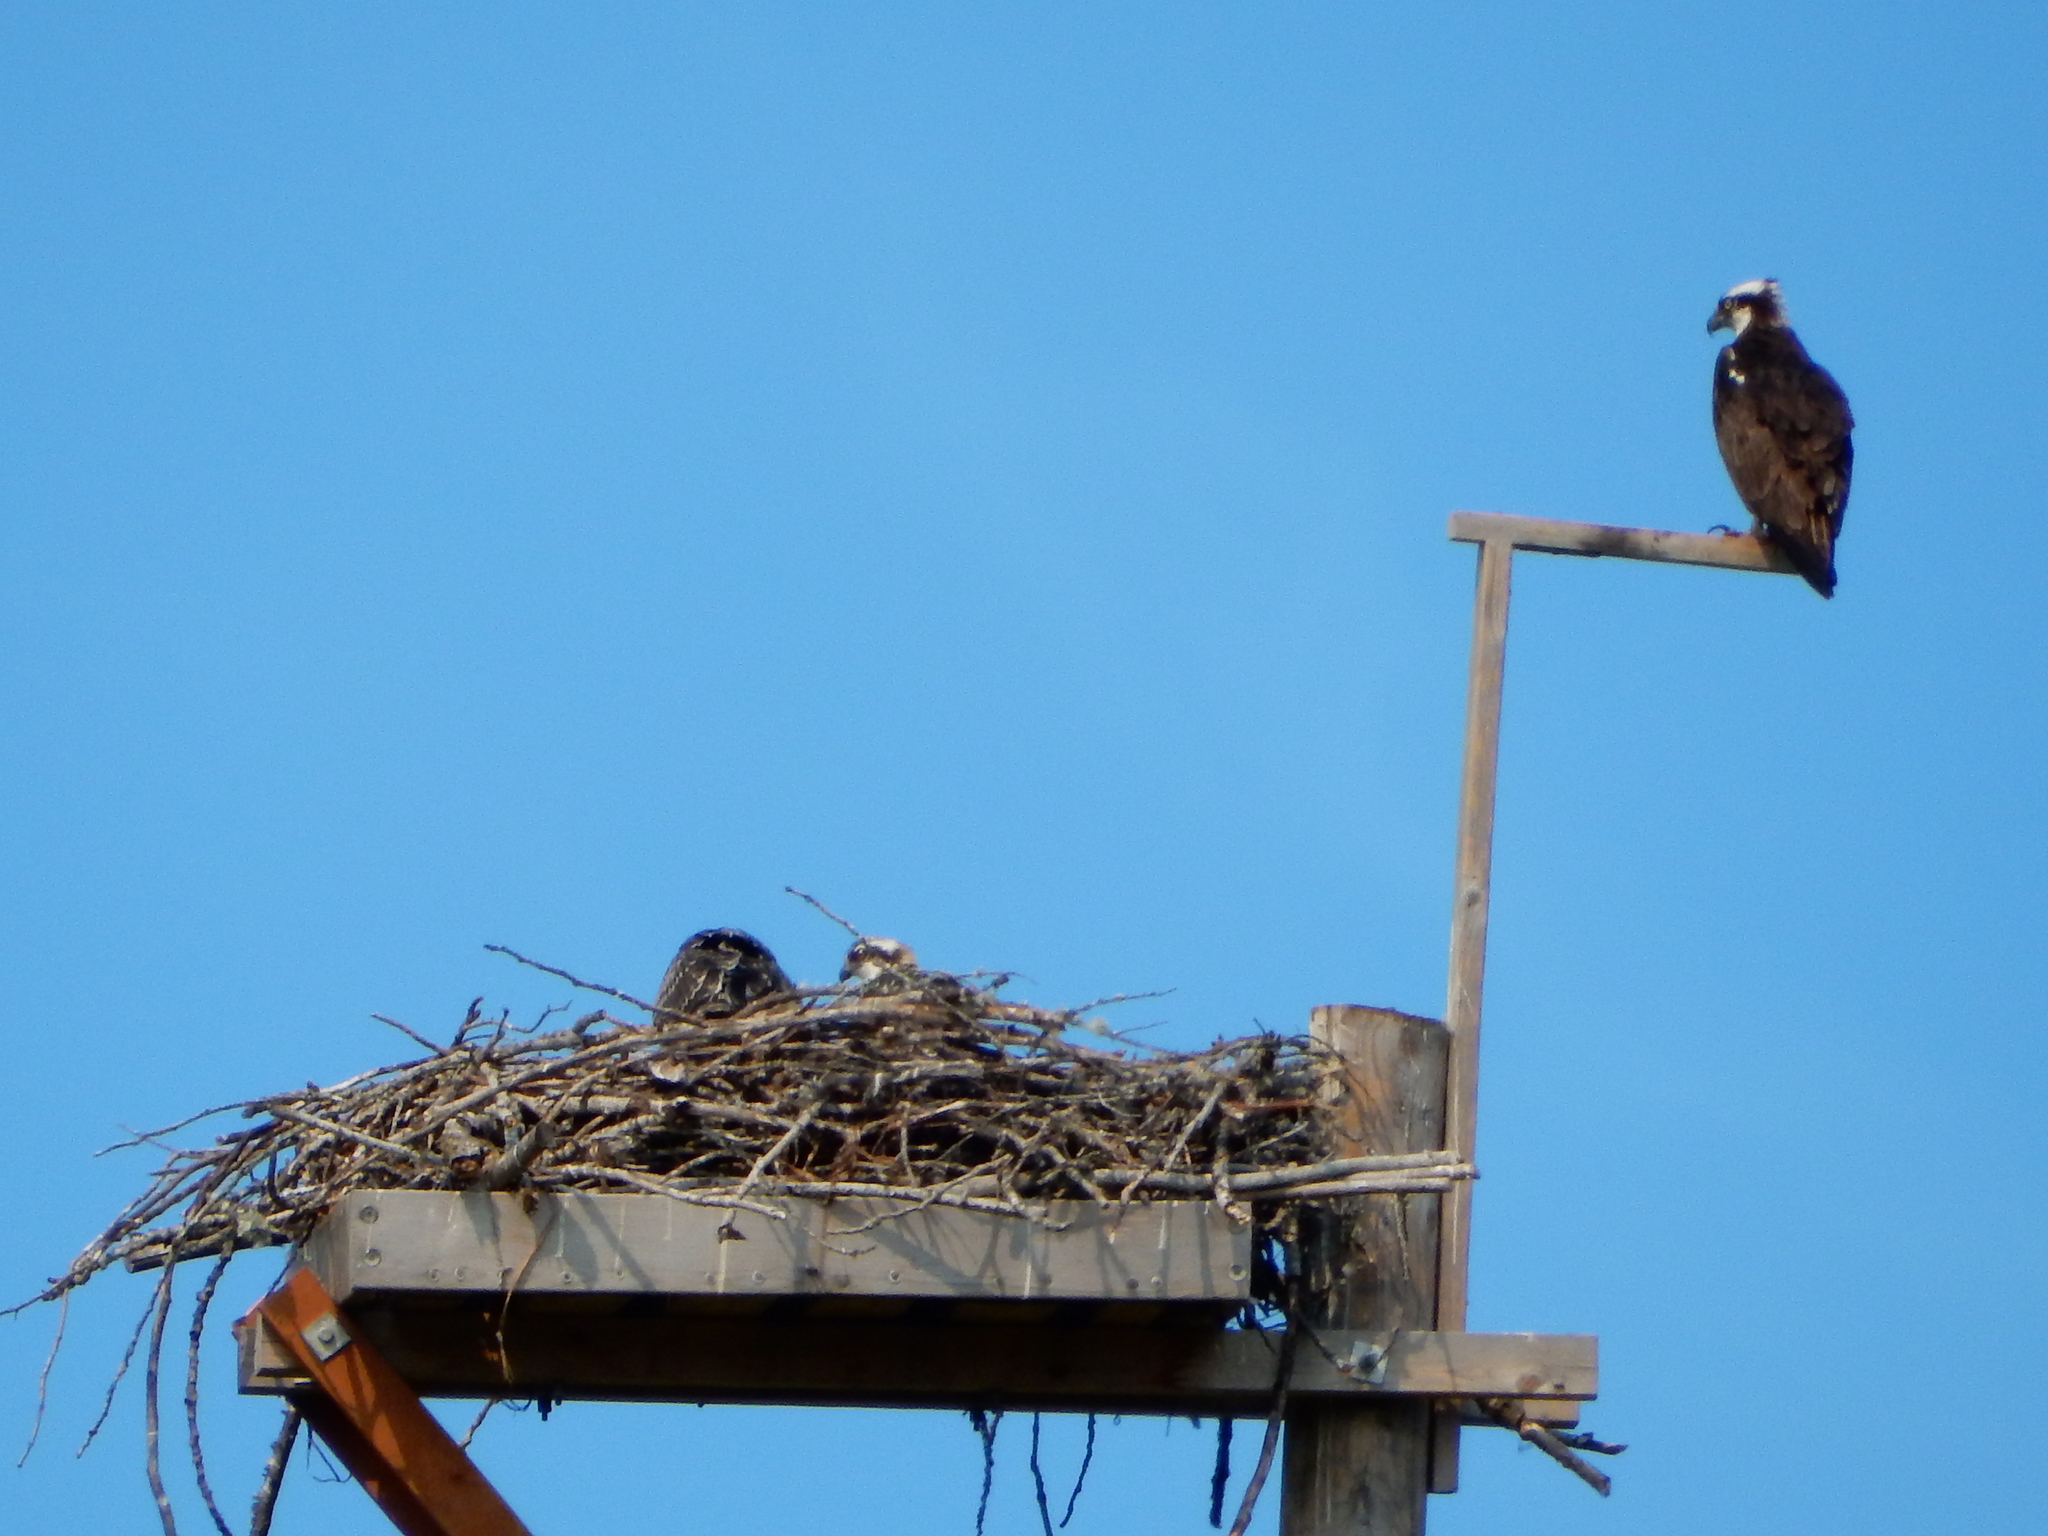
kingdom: Animalia
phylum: Chordata
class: Aves
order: Accipitriformes
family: Pandionidae
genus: Pandion
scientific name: Pandion haliaetus
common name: Osprey
